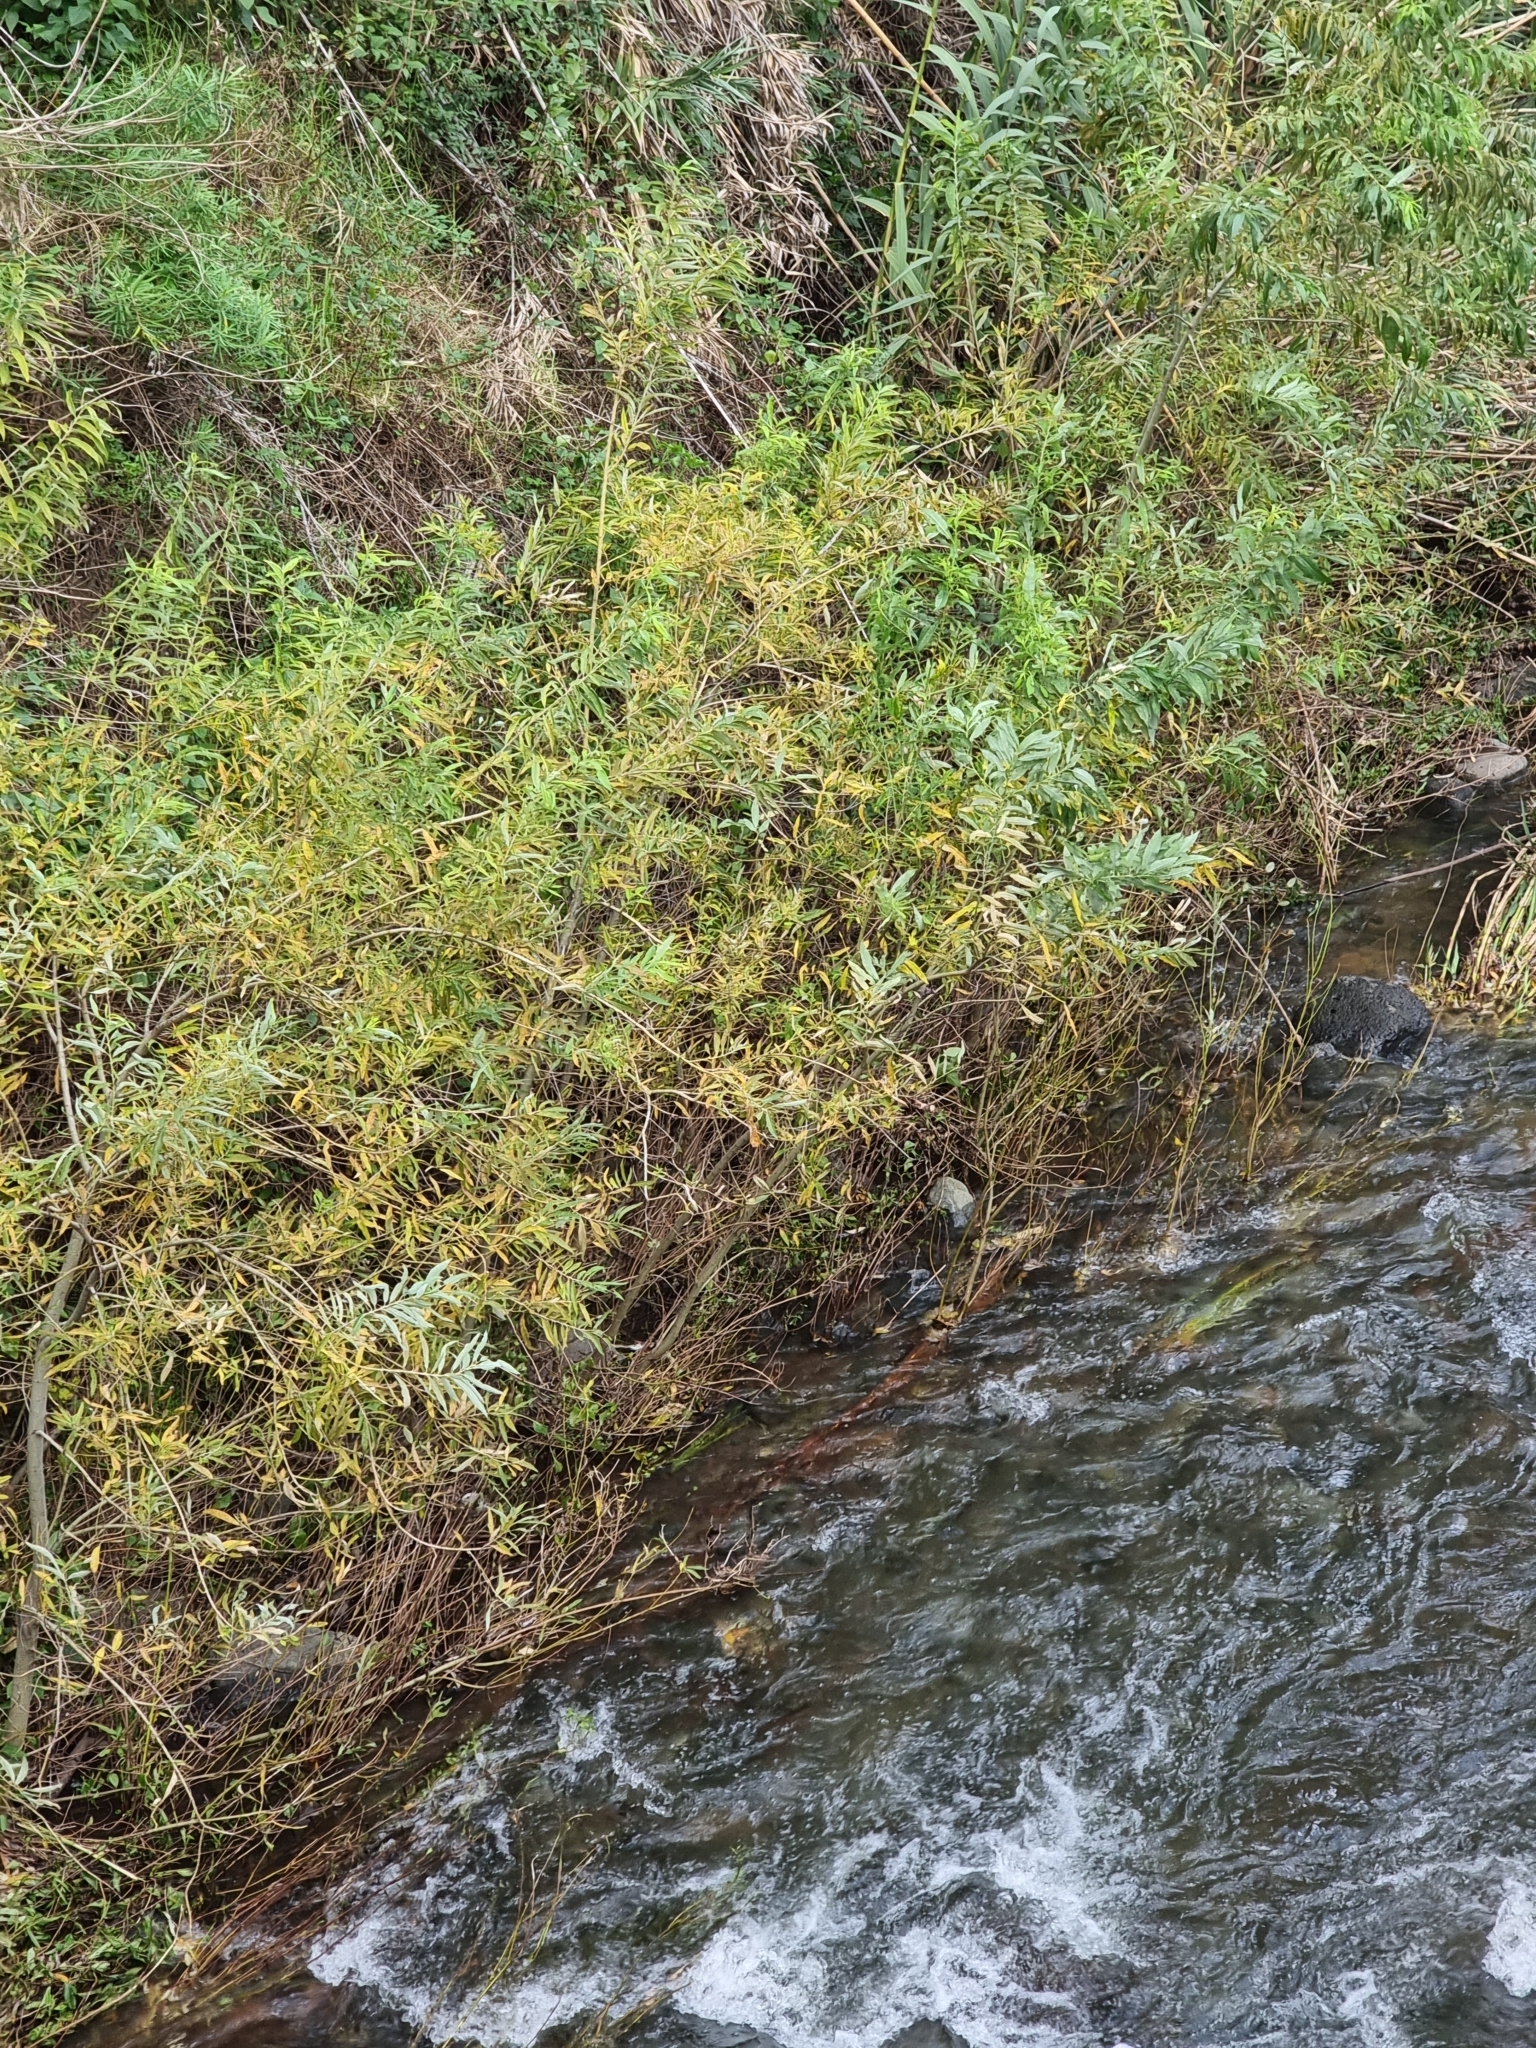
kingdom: Plantae
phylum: Tracheophyta
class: Magnoliopsida
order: Malpighiales
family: Salicaceae
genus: Salix
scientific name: Salix canariensis
